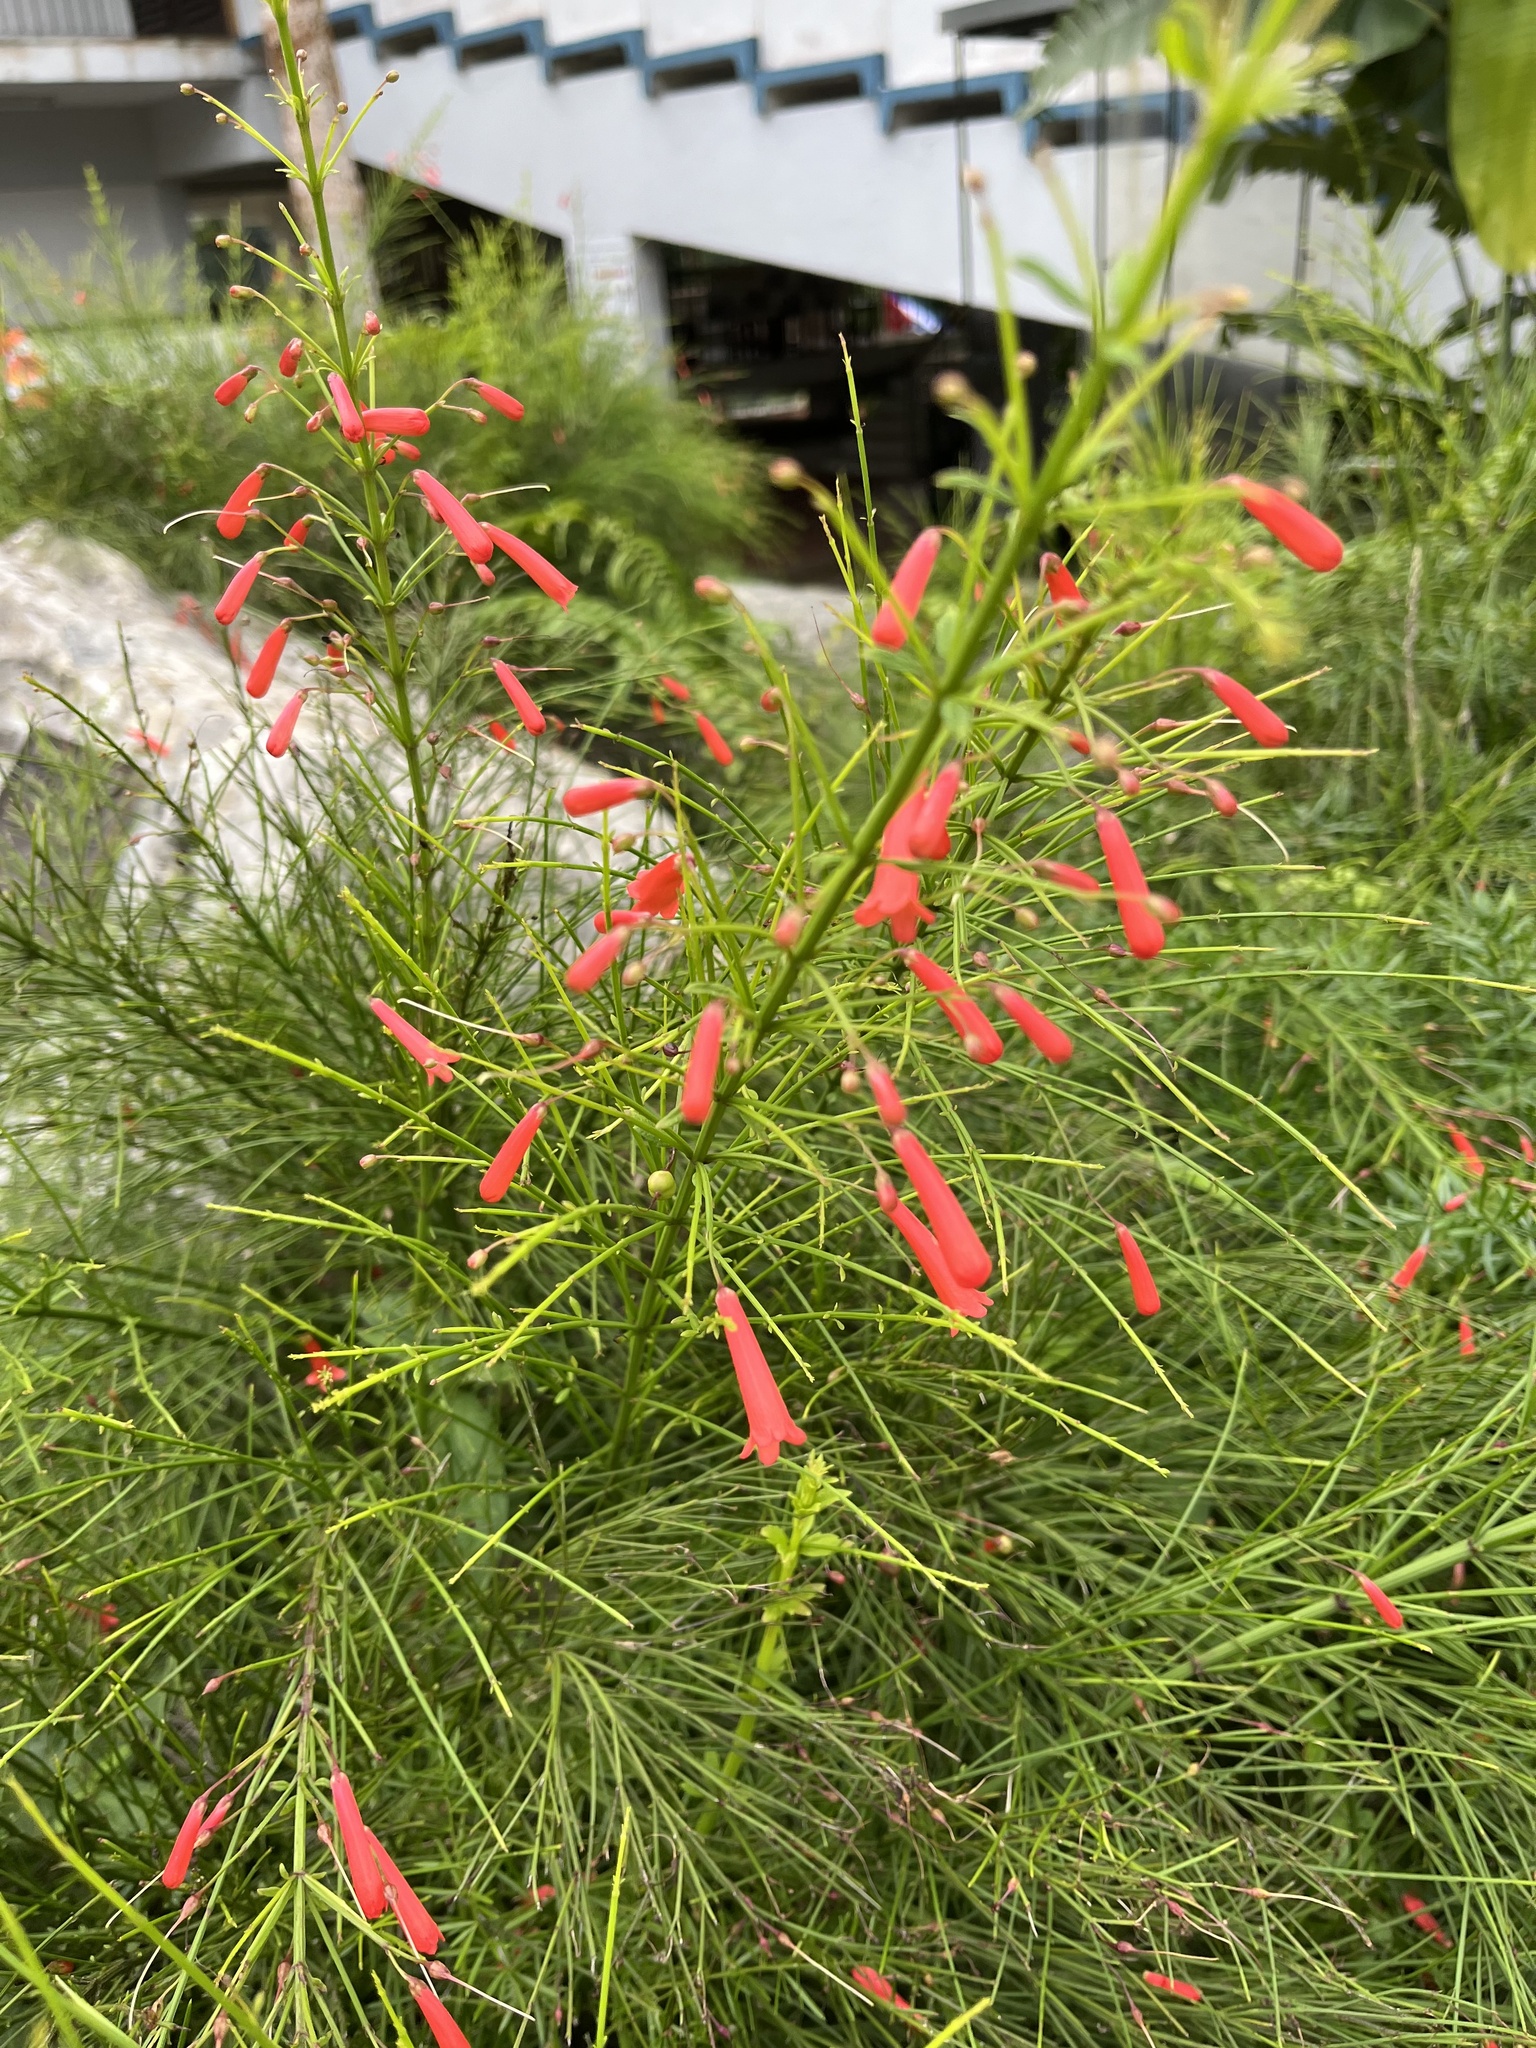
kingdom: Plantae
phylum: Tracheophyta
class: Magnoliopsida
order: Lamiales
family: Plantaginaceae
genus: Russelia
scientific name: Russelia equisetiformis
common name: Fountainbush
